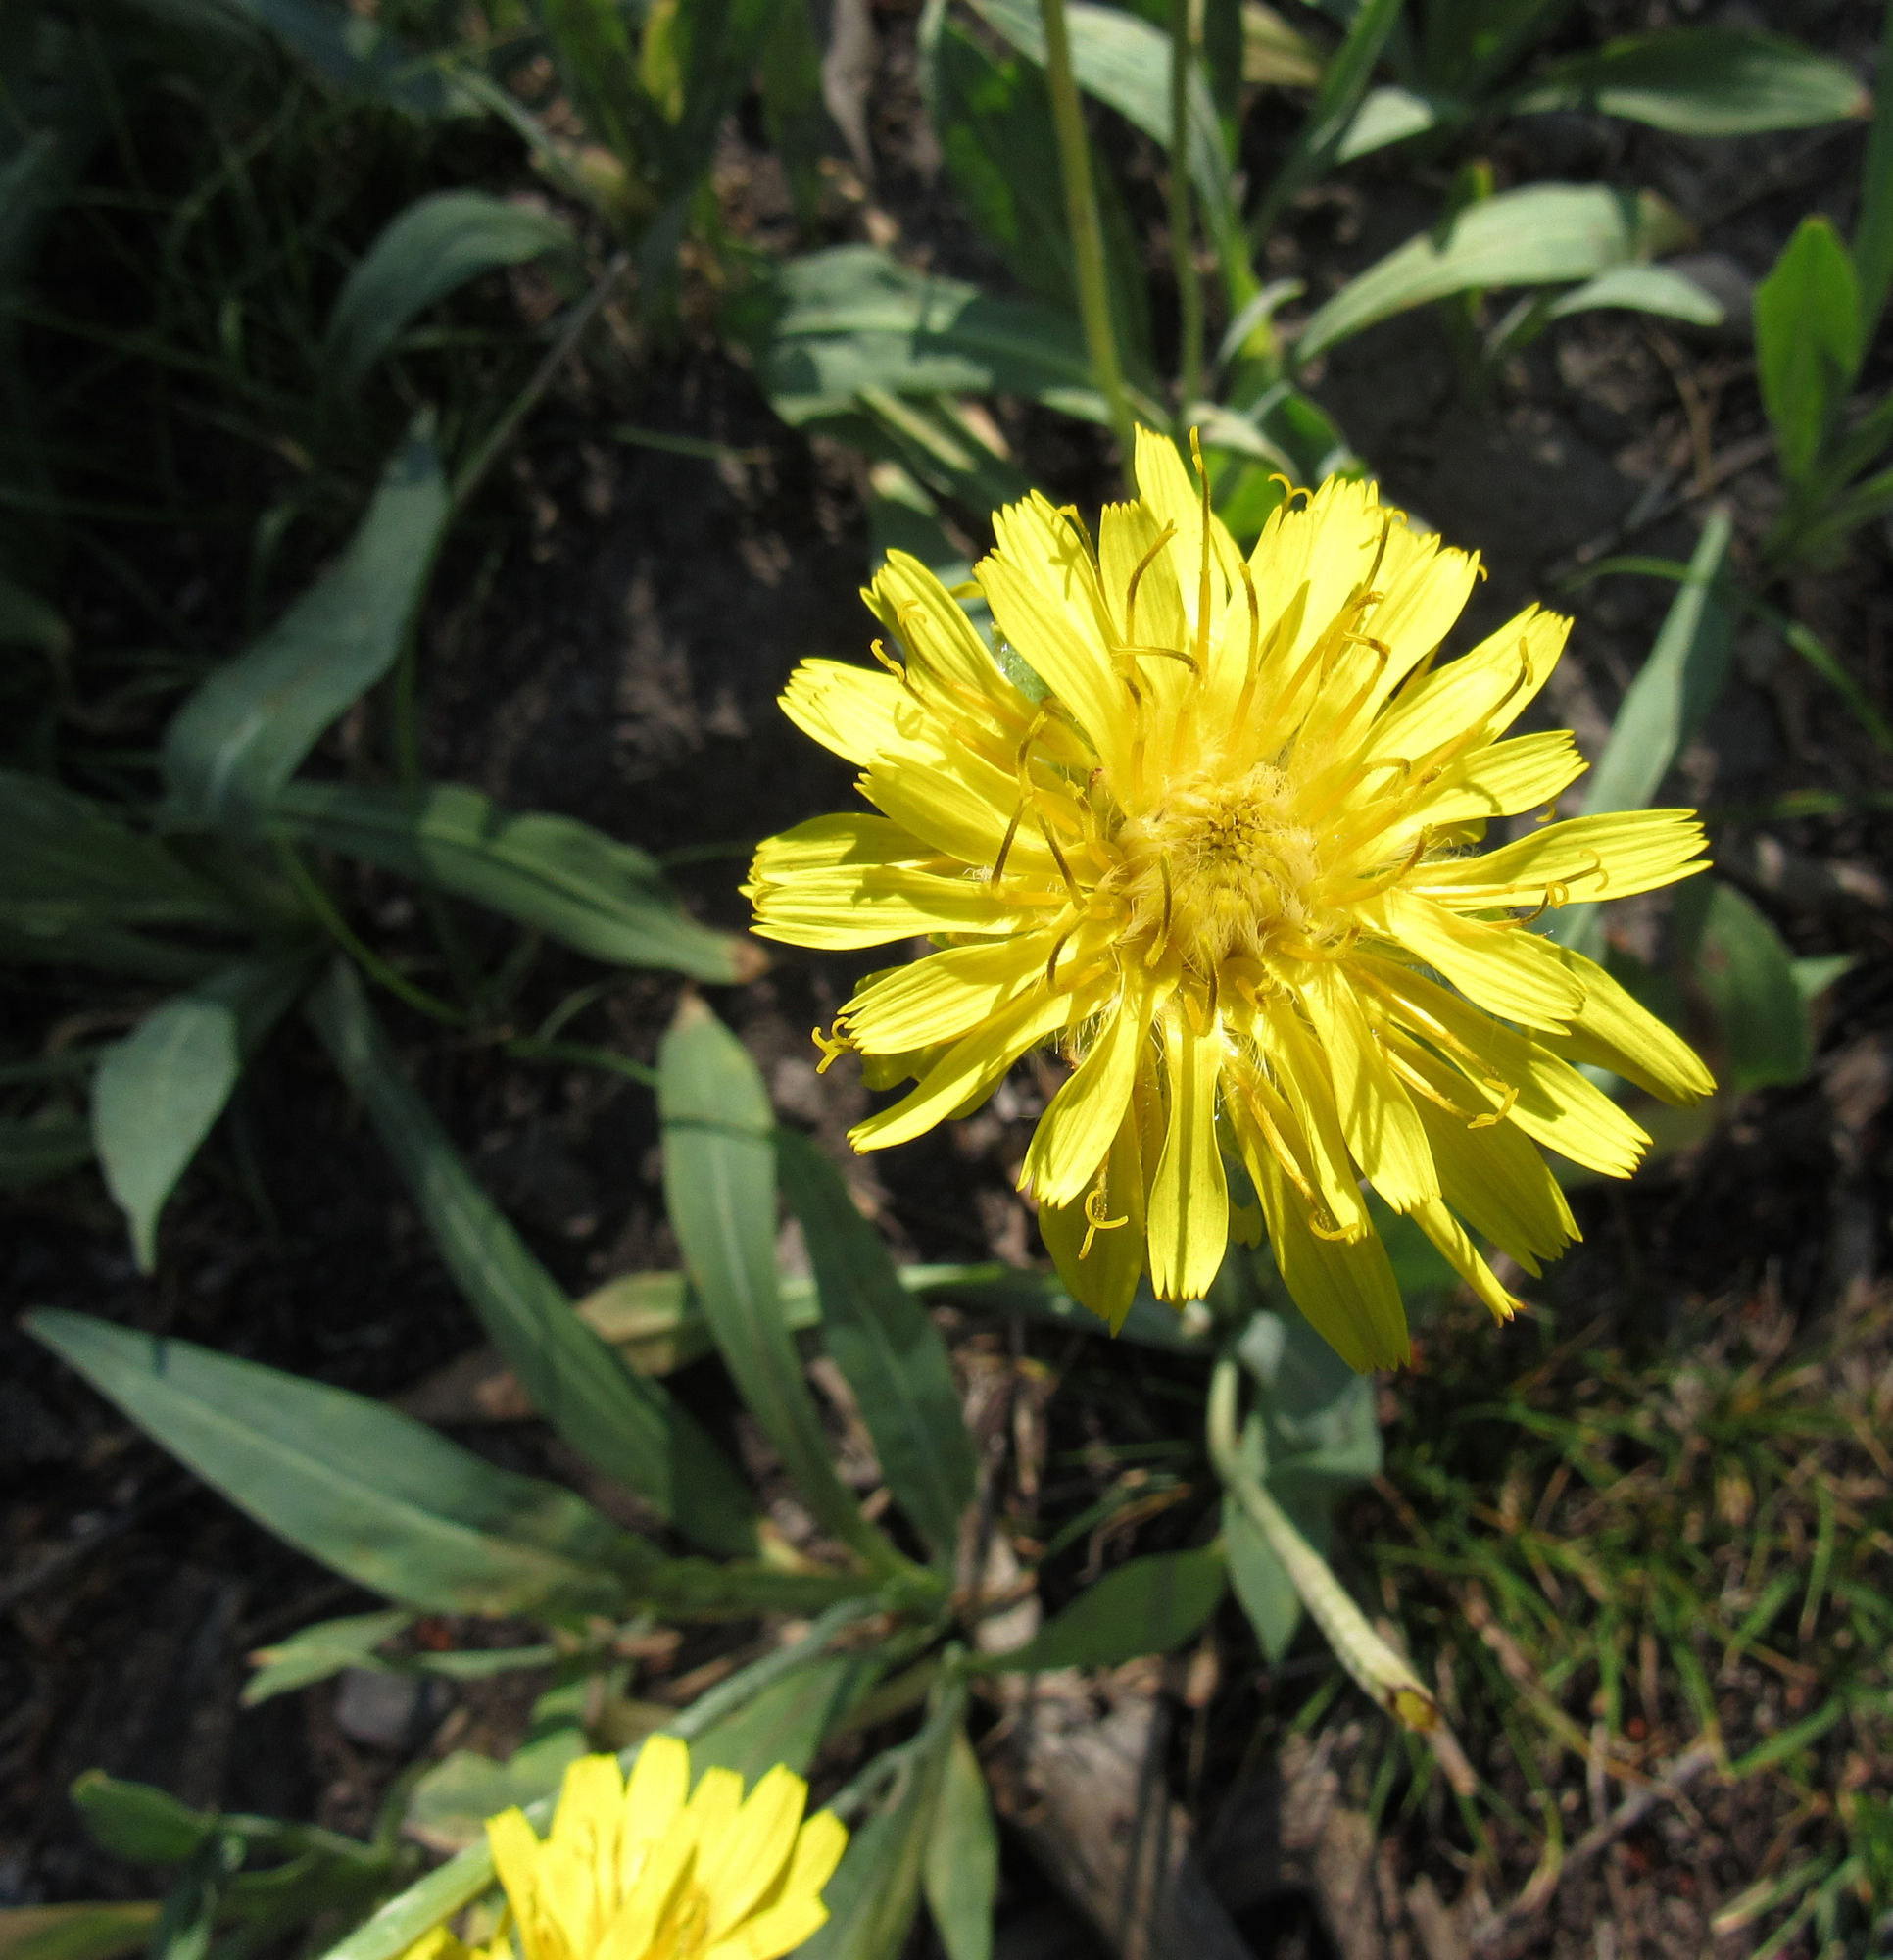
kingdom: Plantae
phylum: Tracheophyta
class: Magnoliopsida
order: Asterales
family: Asteraceae
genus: Agoseris
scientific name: Agoseris glauca
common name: Prairie agoseris
